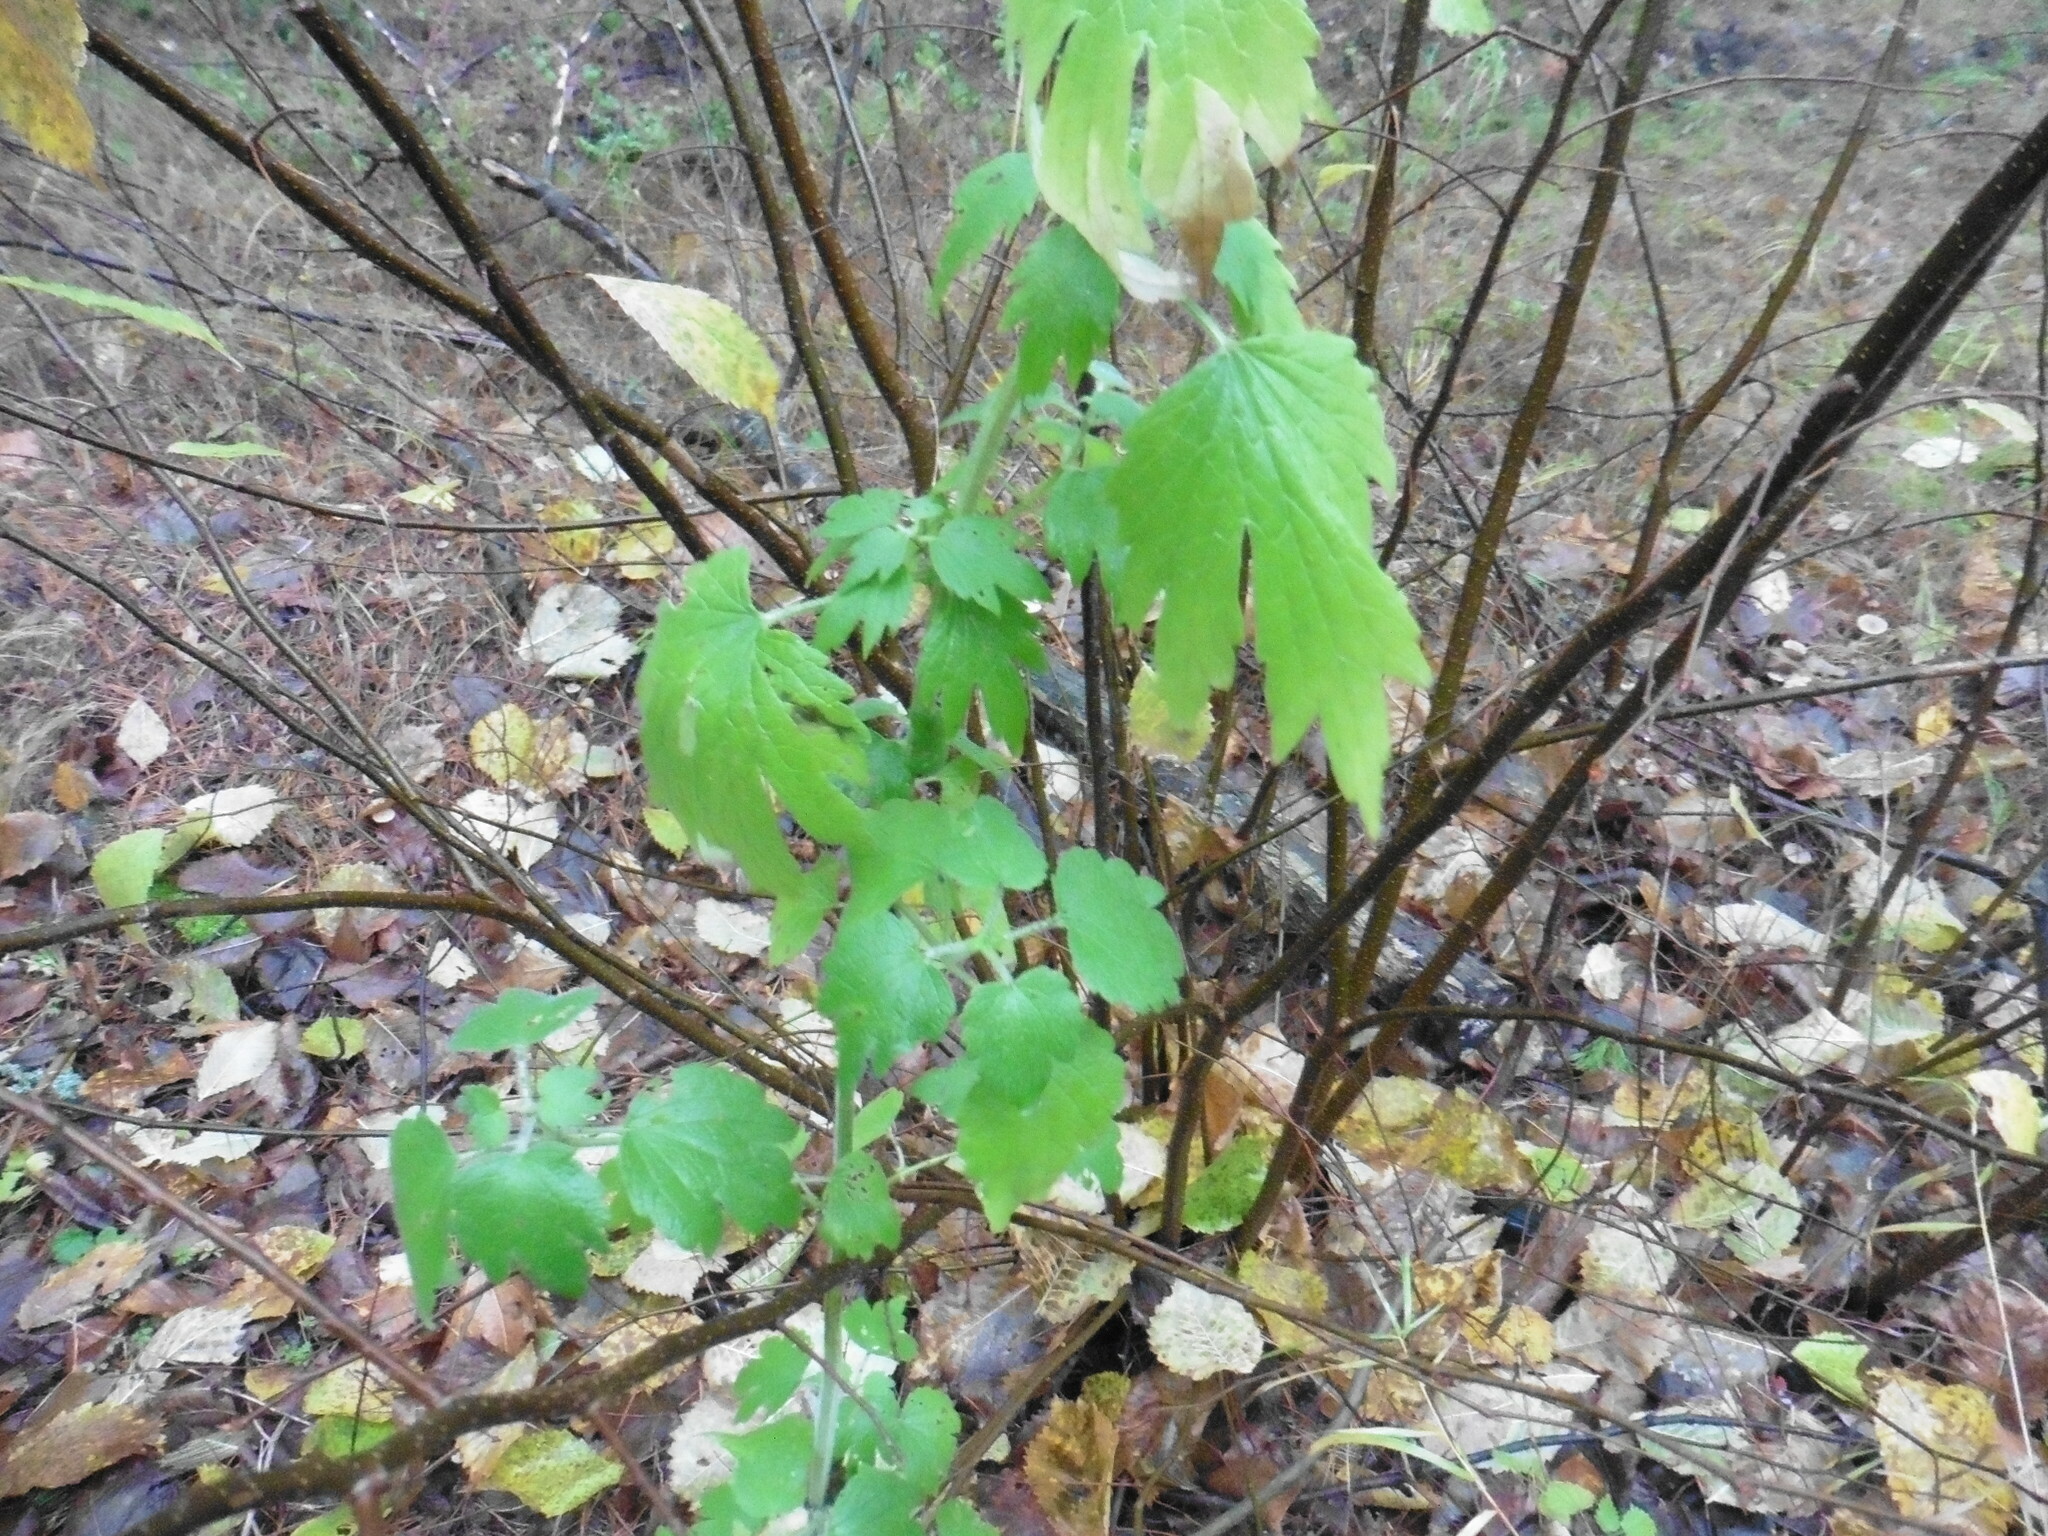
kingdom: Plantae
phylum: Tracheophyta
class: Magnoliopsida
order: Lamiales
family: Lamiaceae
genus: Leonurus
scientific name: Leonurus quinquelobatus
